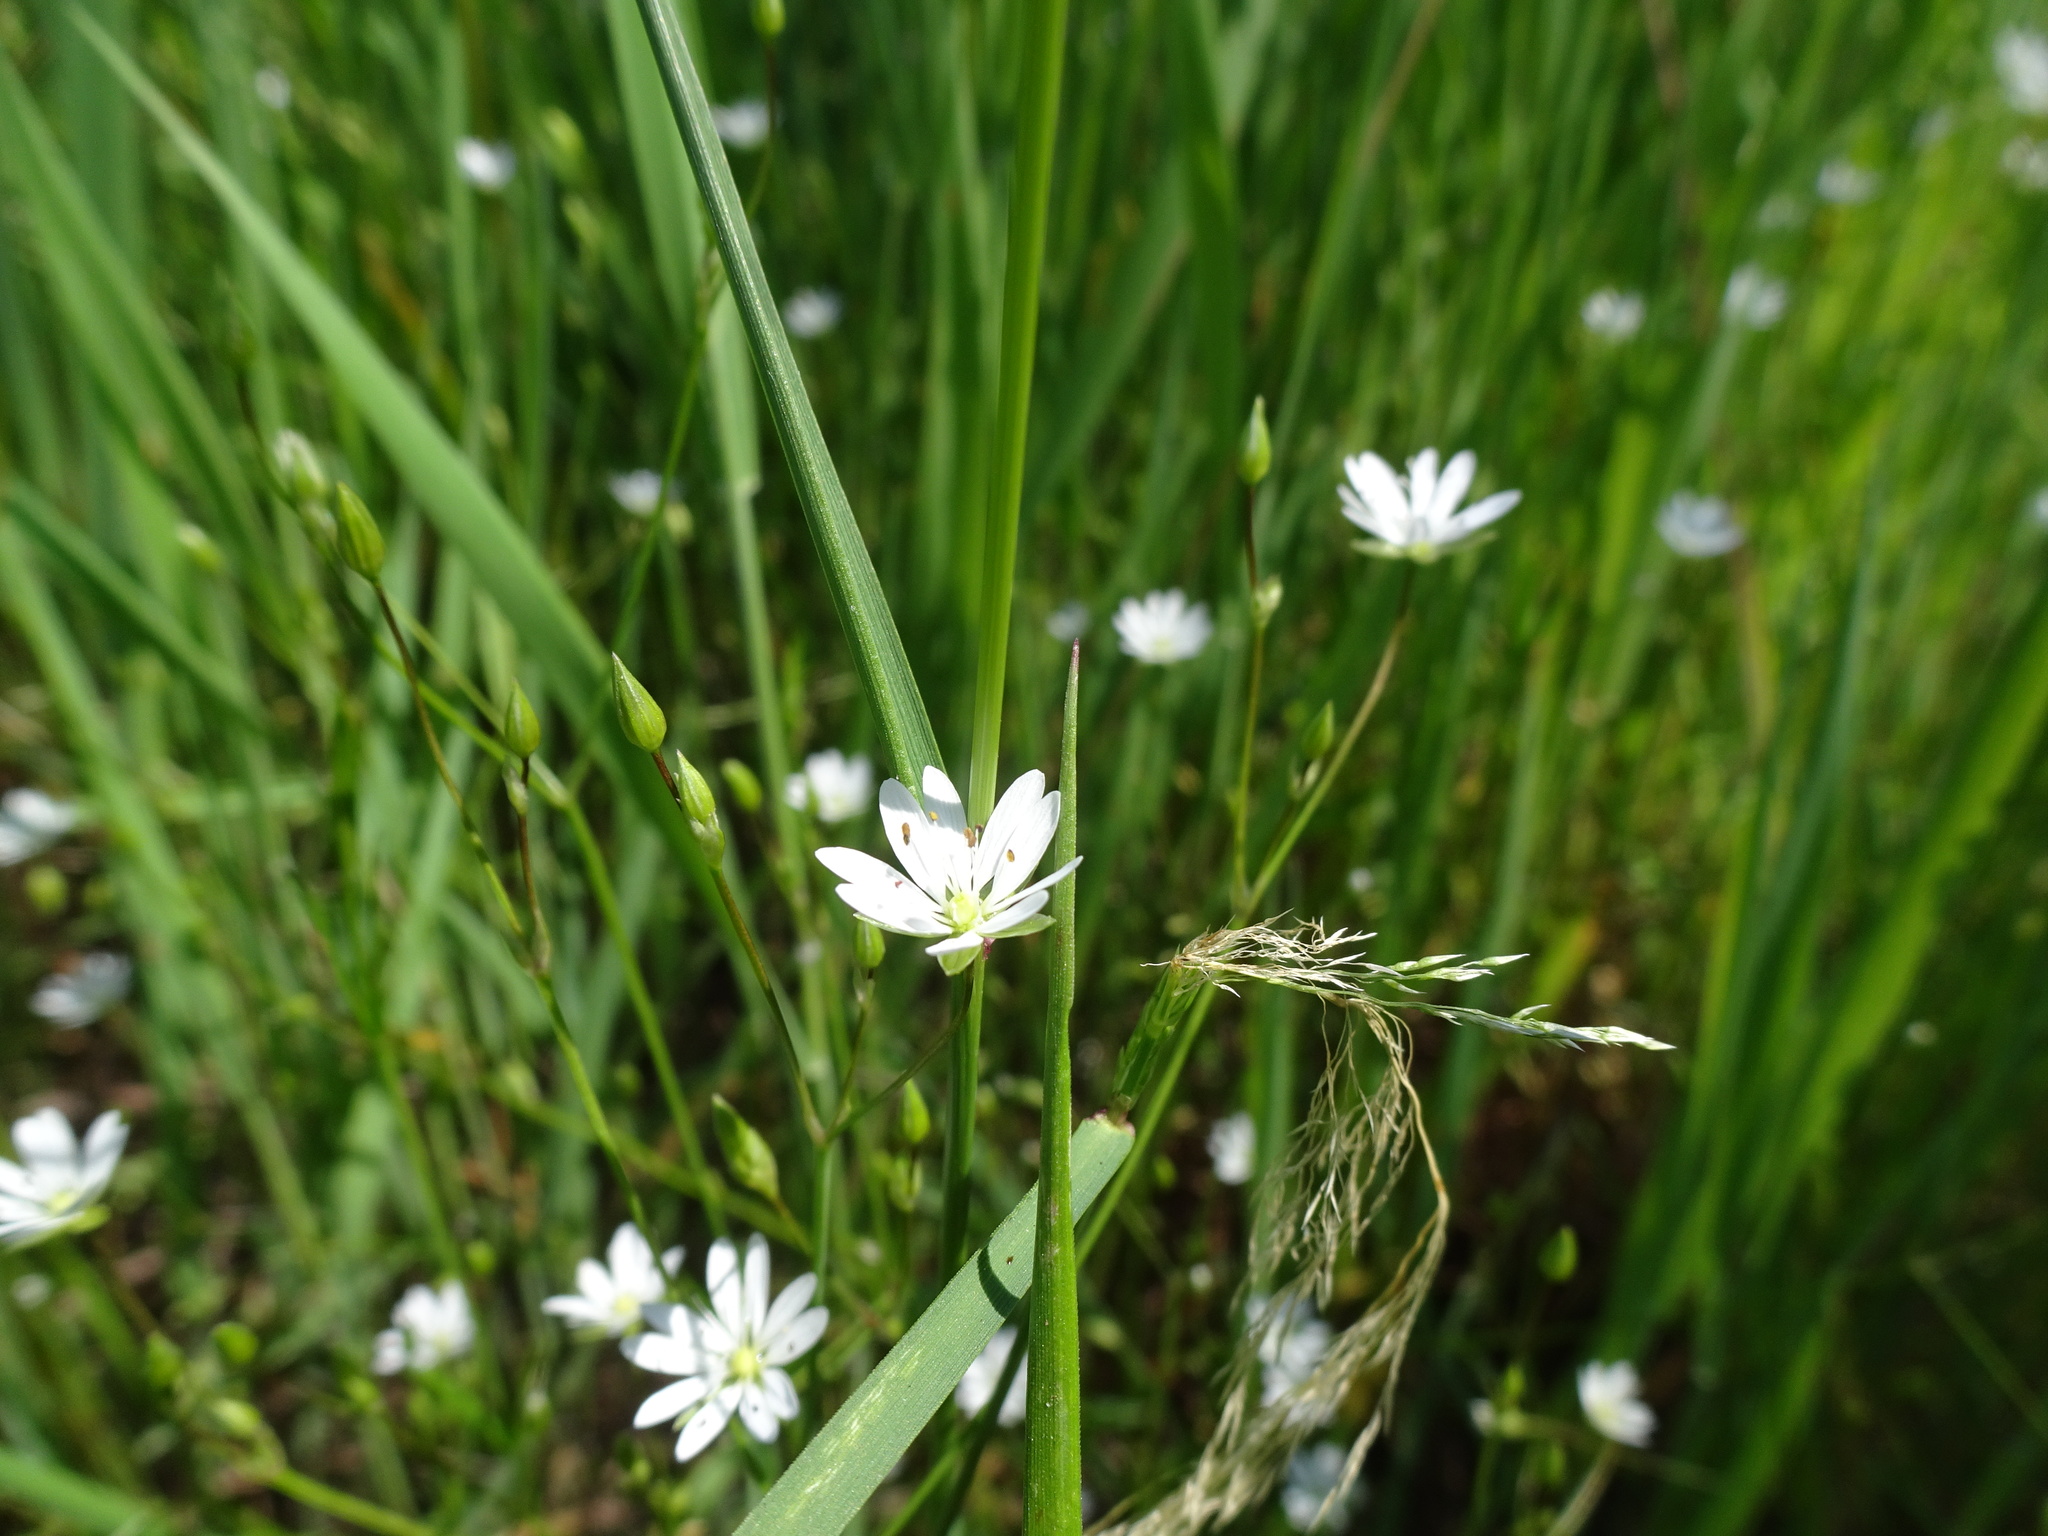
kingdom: Plantae
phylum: Tracheophyta
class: Magnoliopsida
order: Caryophyllales
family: Caryophyllaceae
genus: Stellaria
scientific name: Stellaria graminea
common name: Grass-like starwort
